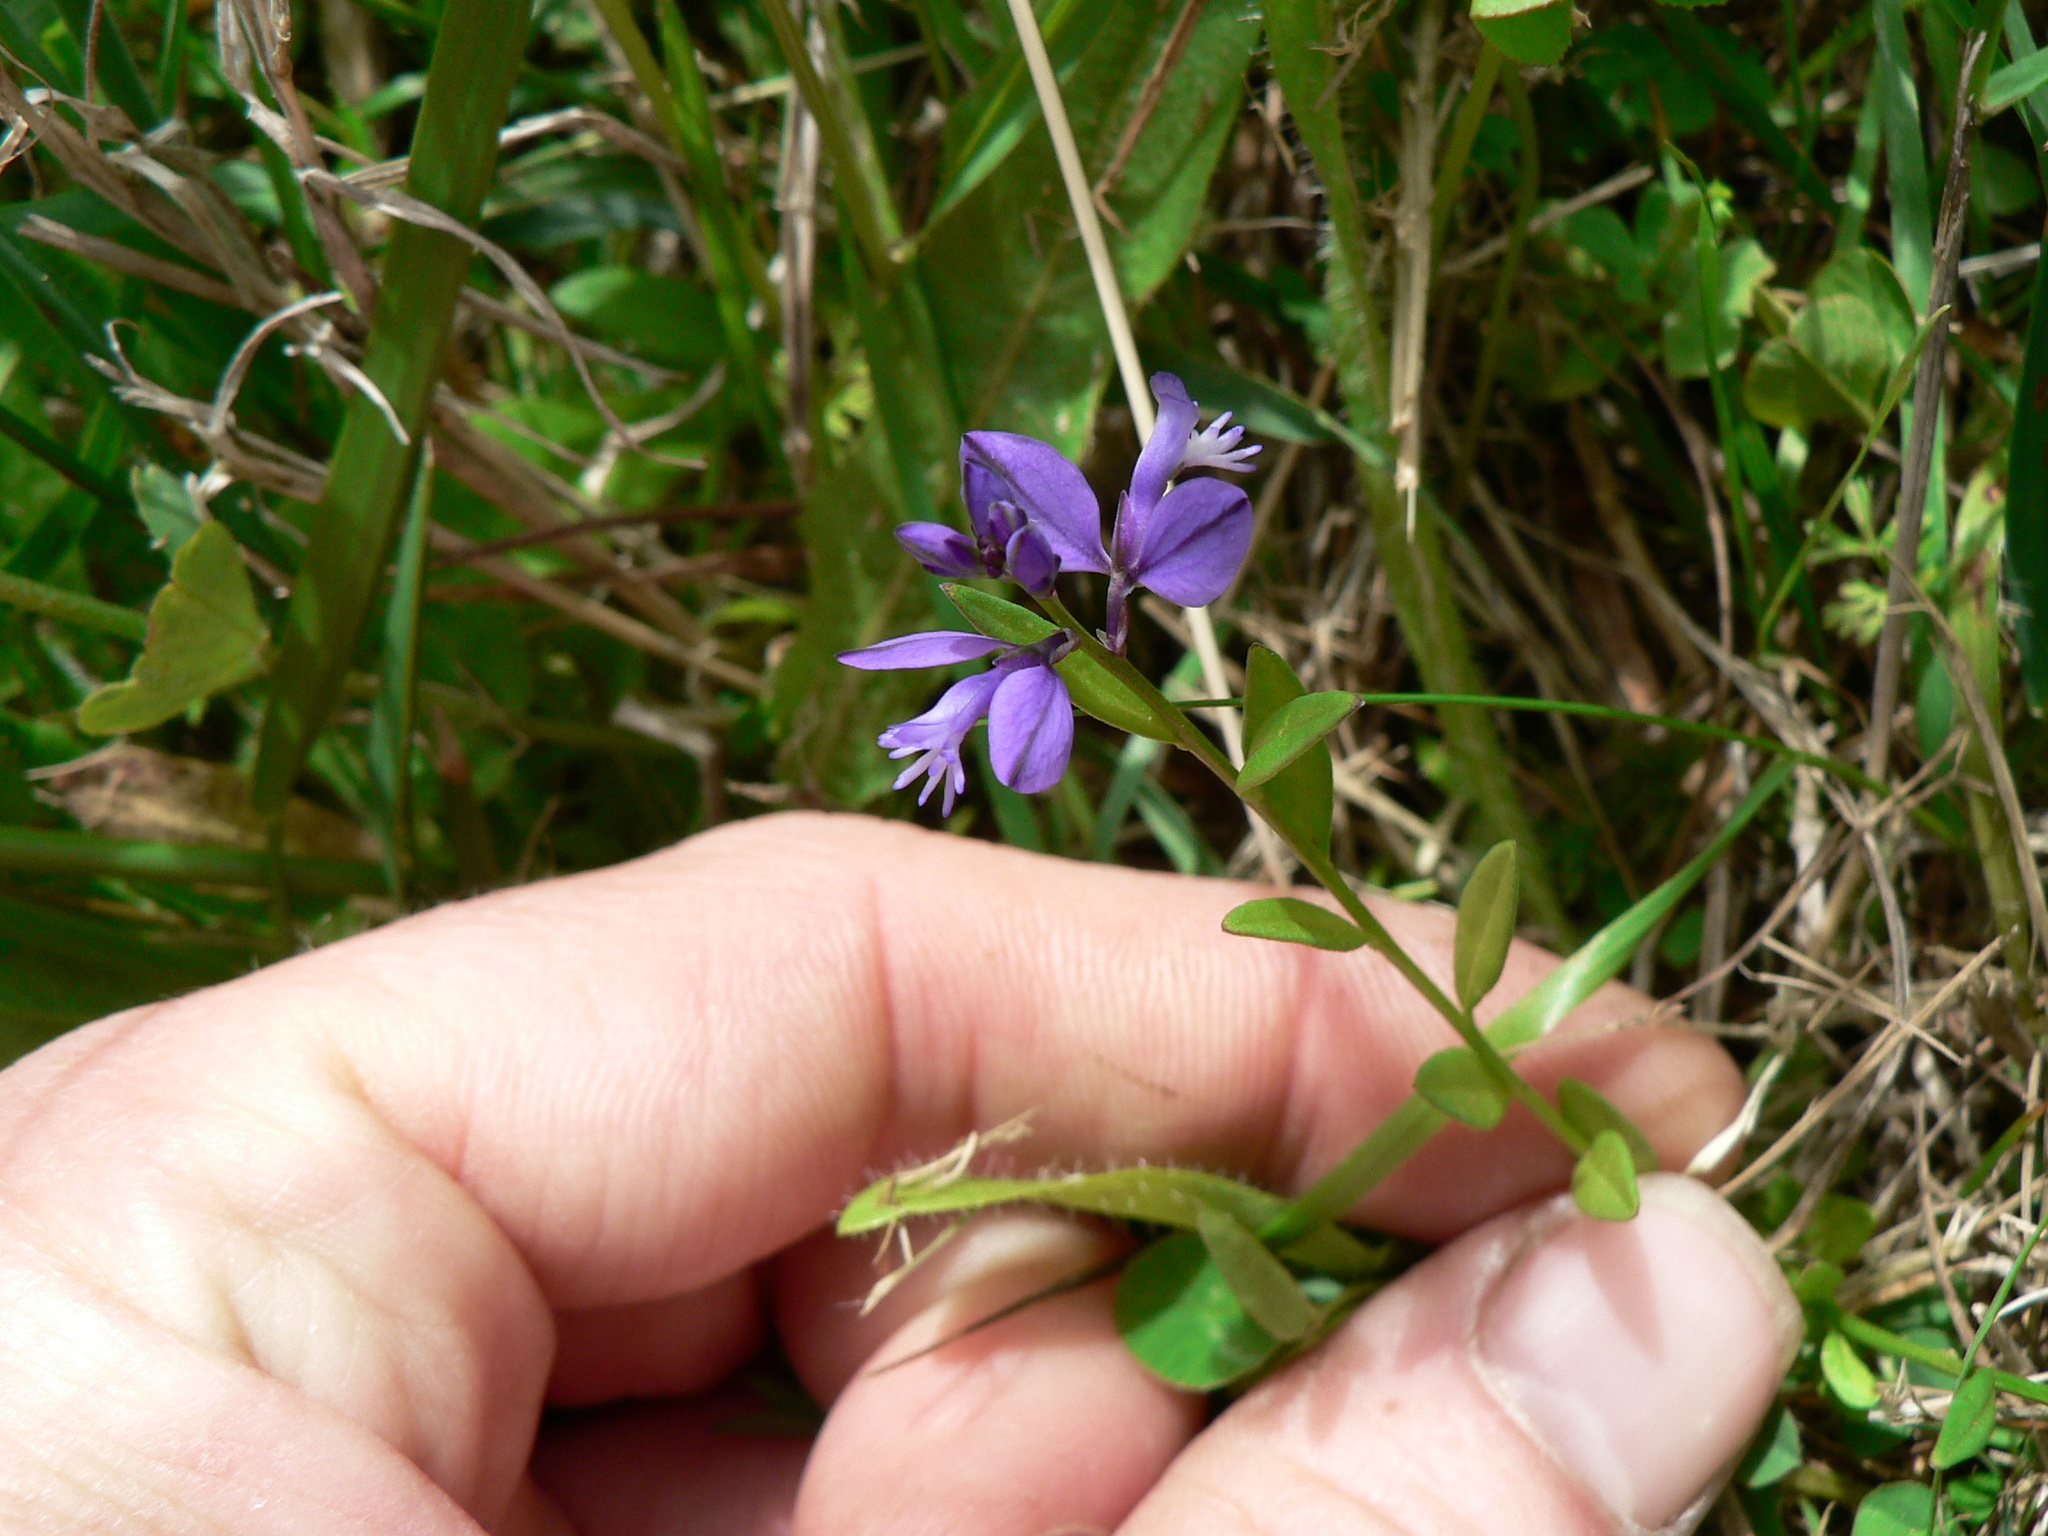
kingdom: Plantae
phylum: Tracheophyta
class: Magnoliopsida
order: Fabales
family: Polygalaceae
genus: Polygala
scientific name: Polygala vulgaris
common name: Common milkwort
